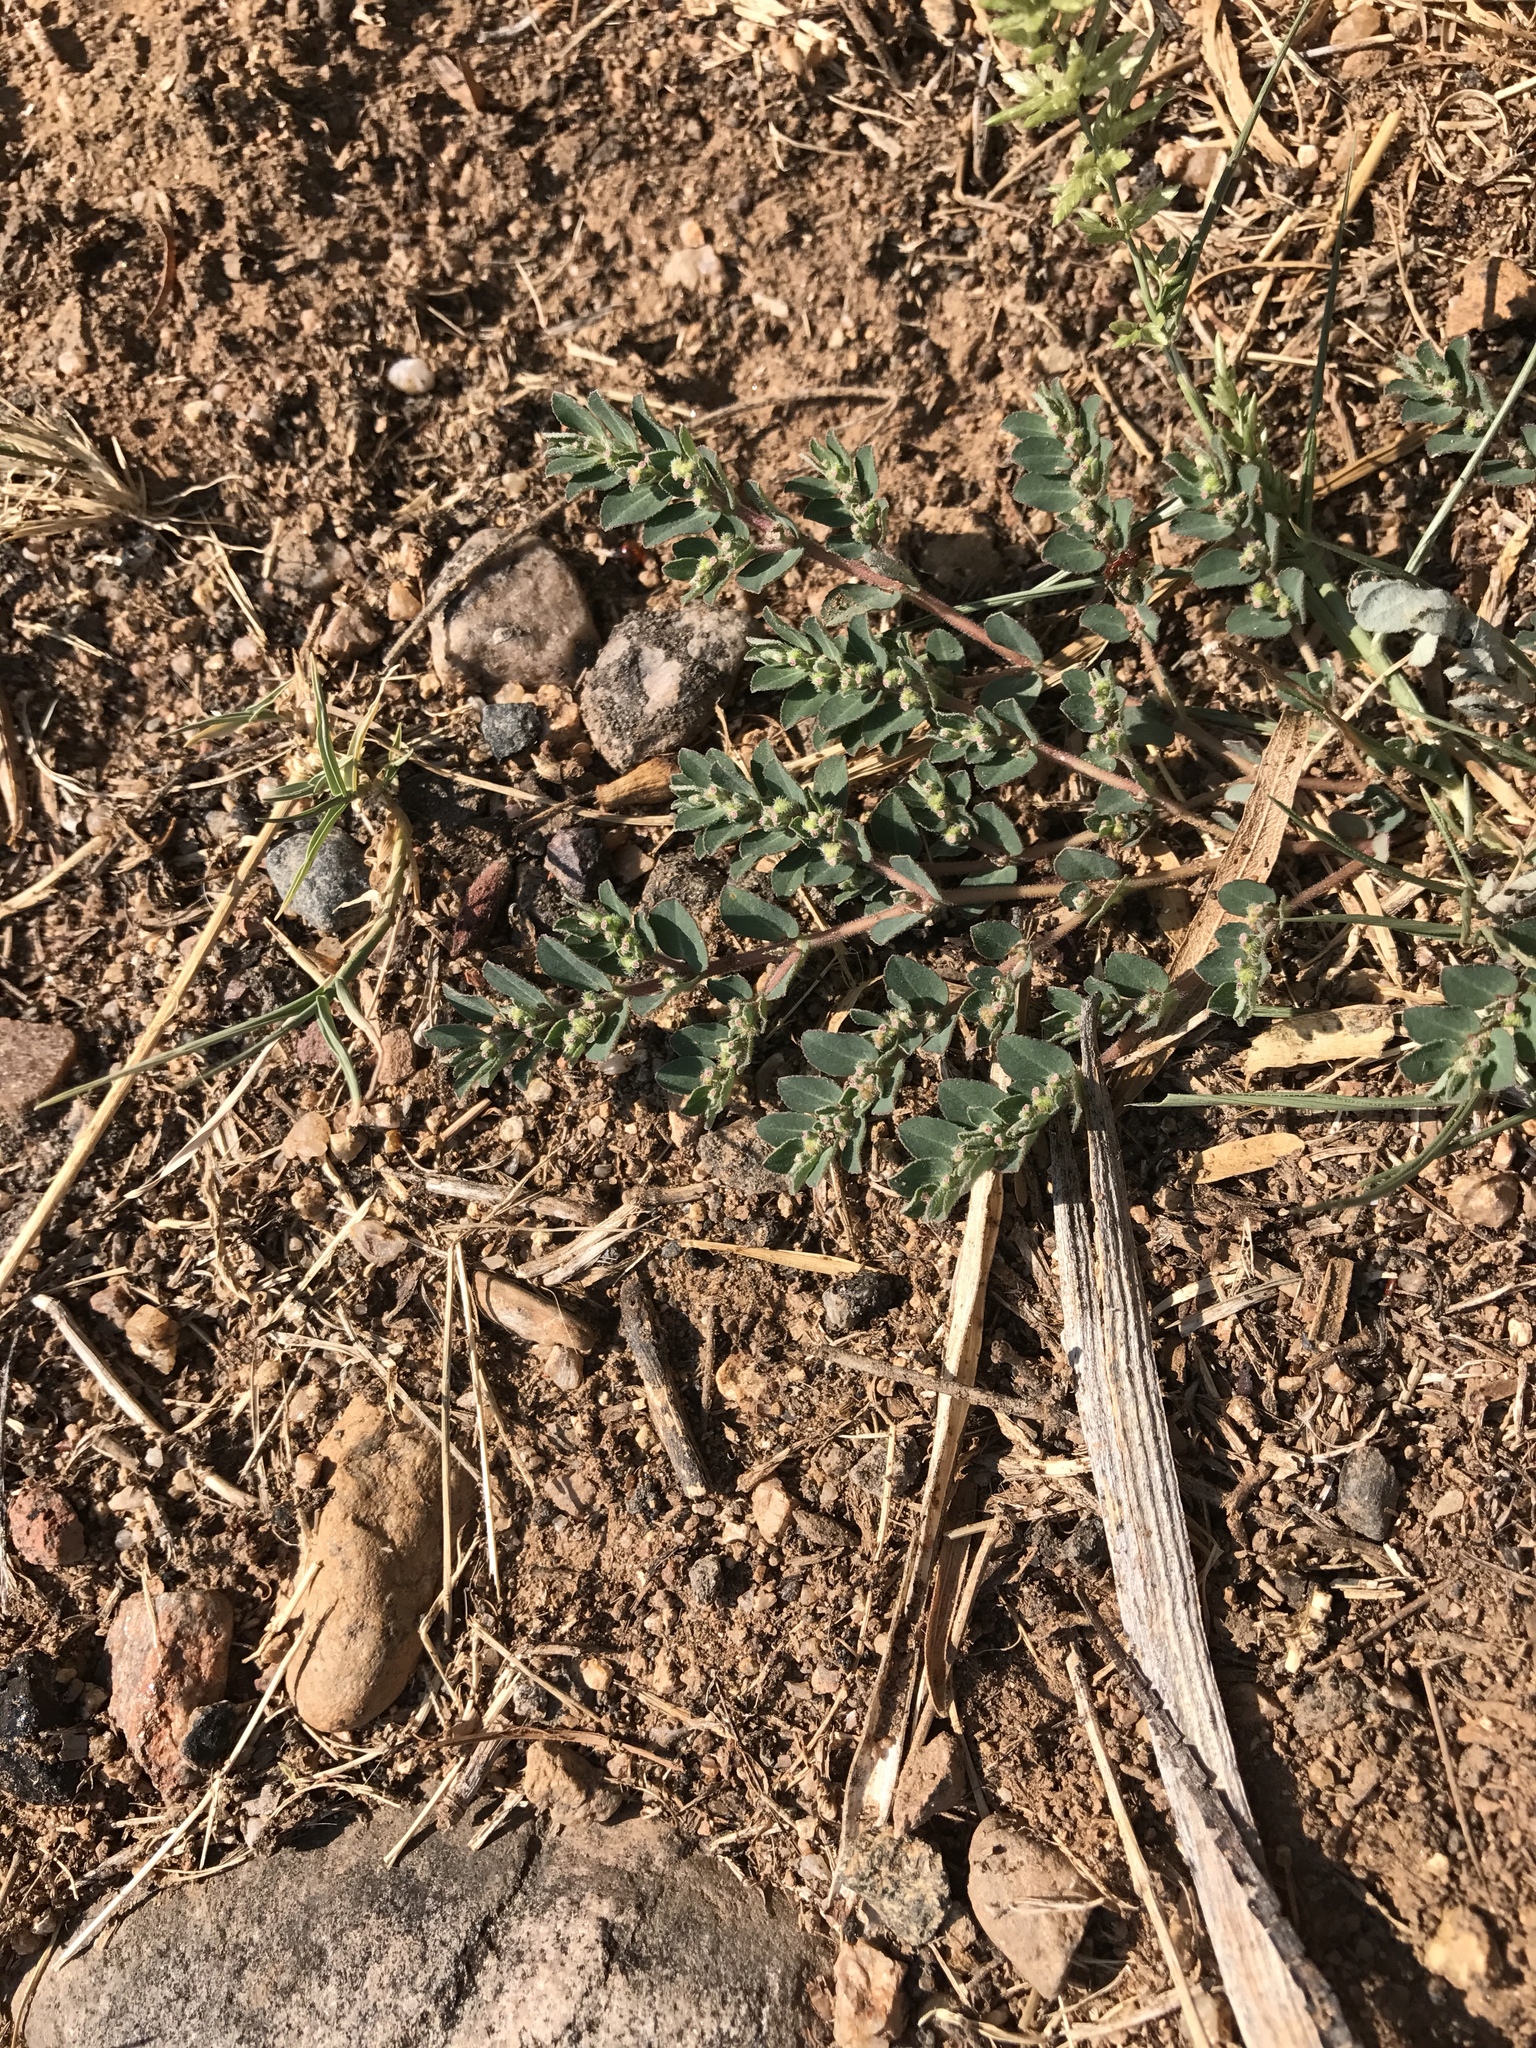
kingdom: Plantae
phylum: Tracheophyta
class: Magnoliopsida
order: Malpighiales
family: Euphorbiaceae
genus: Euphorbia
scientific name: Euphorbia prostrata
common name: Prostrate sandmat
